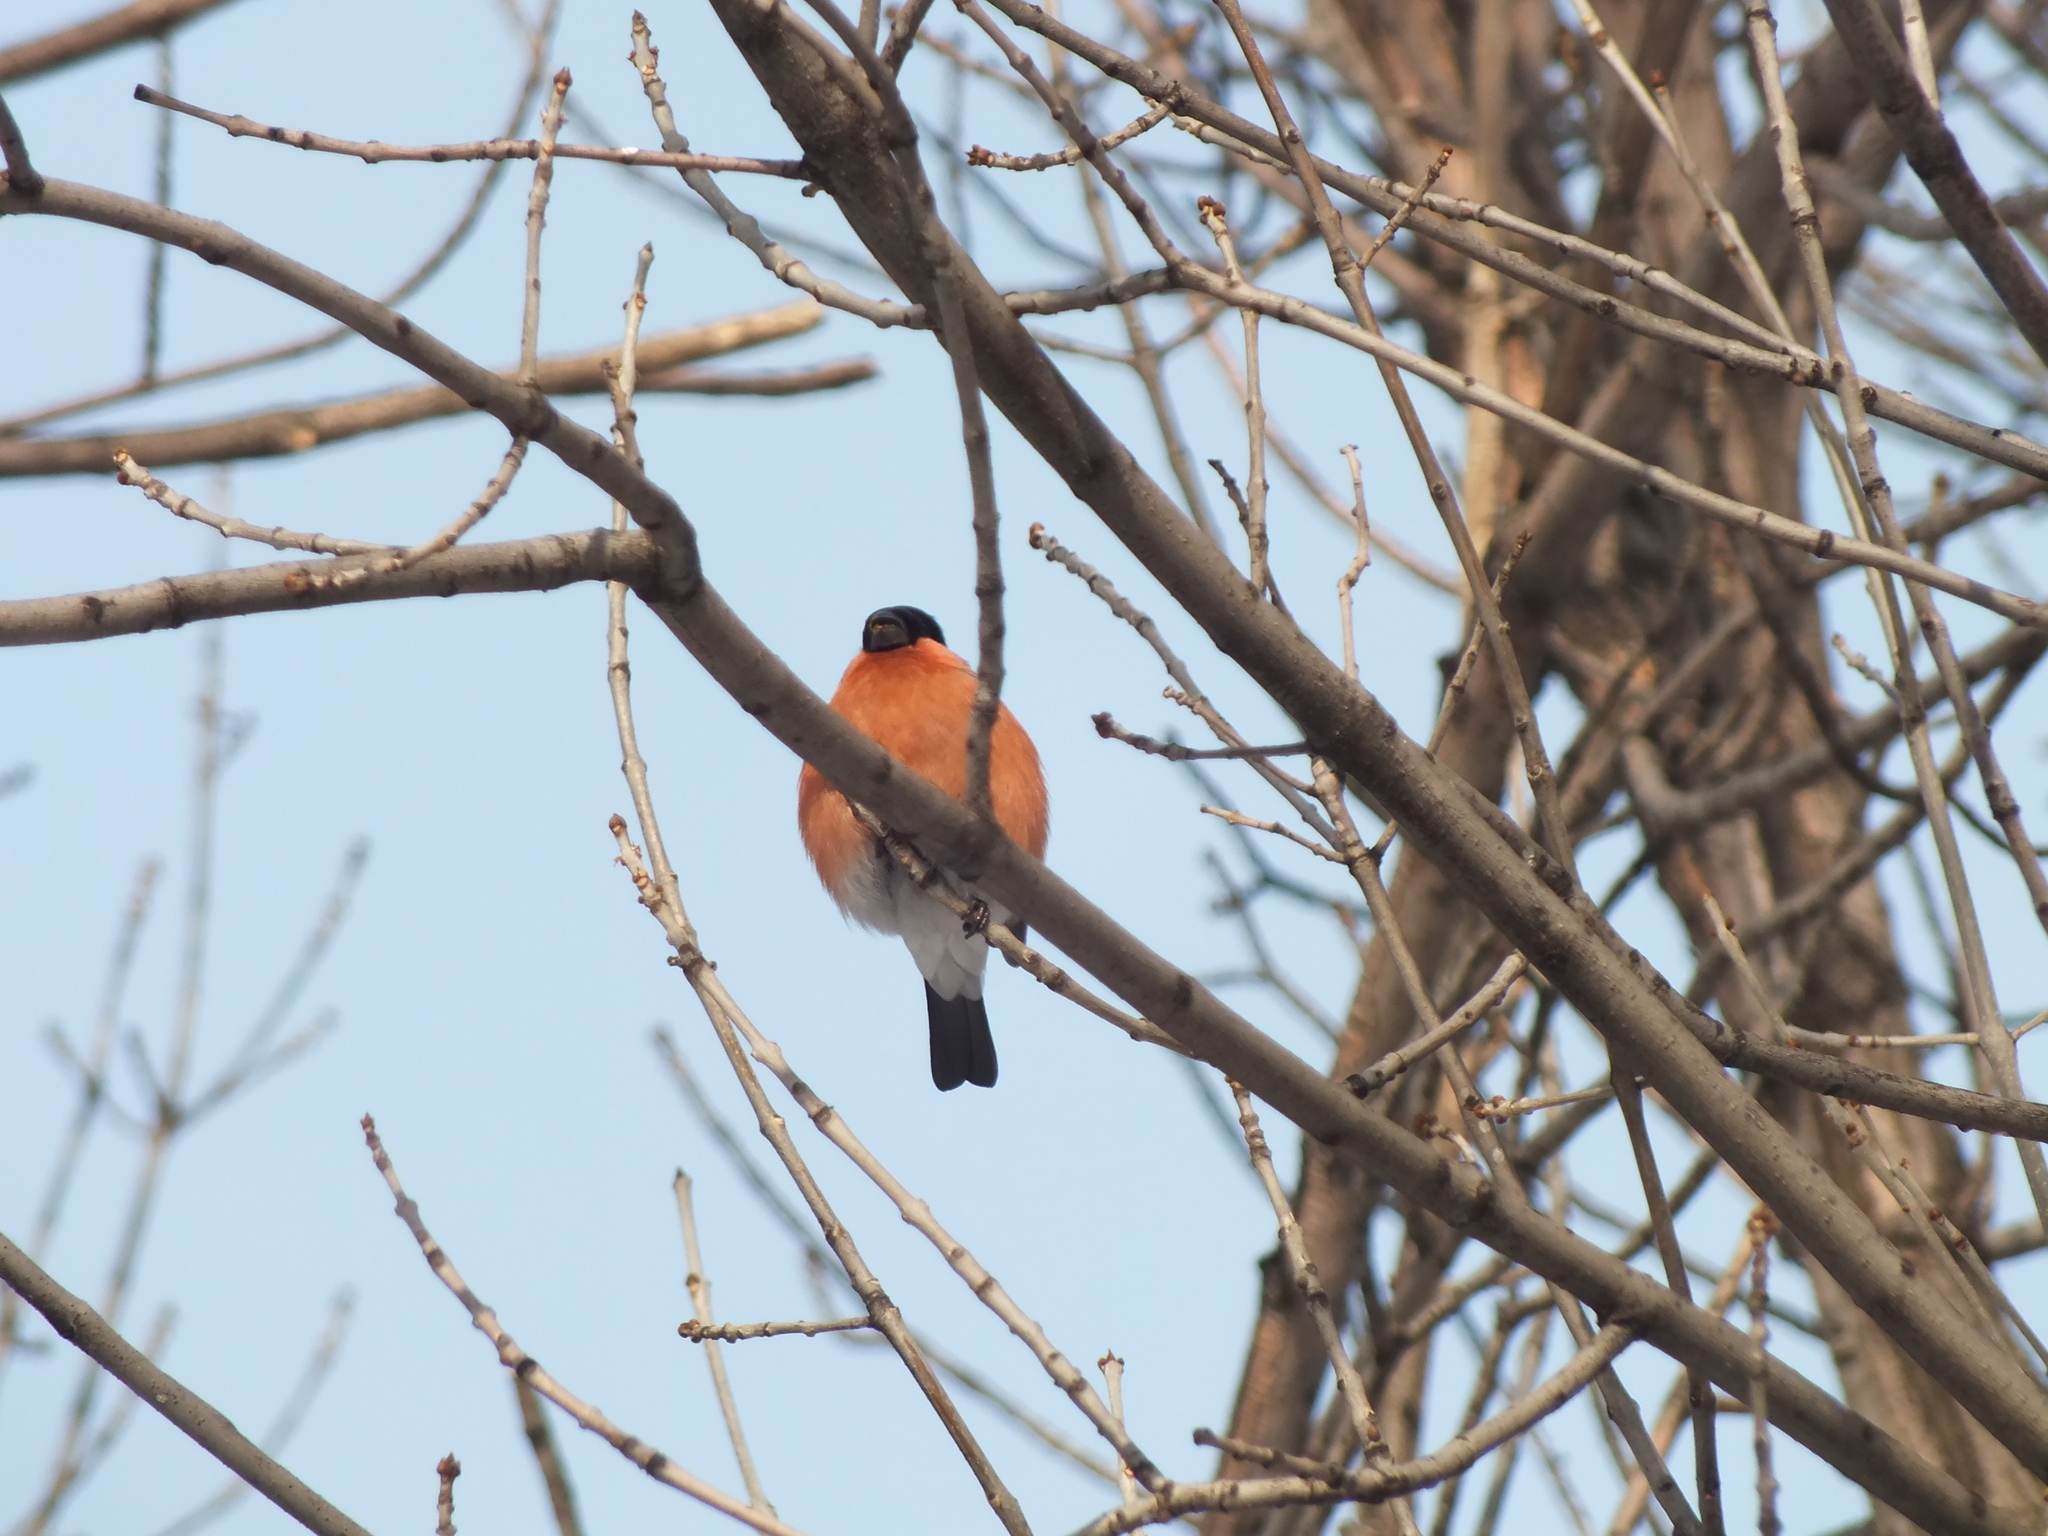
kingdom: Animalia
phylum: Chordata
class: Aves
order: Passeriformes
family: Fringillidae
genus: Pyrrhula
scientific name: Pyrrhula pyrrhula
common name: Eurasian bullfinch
